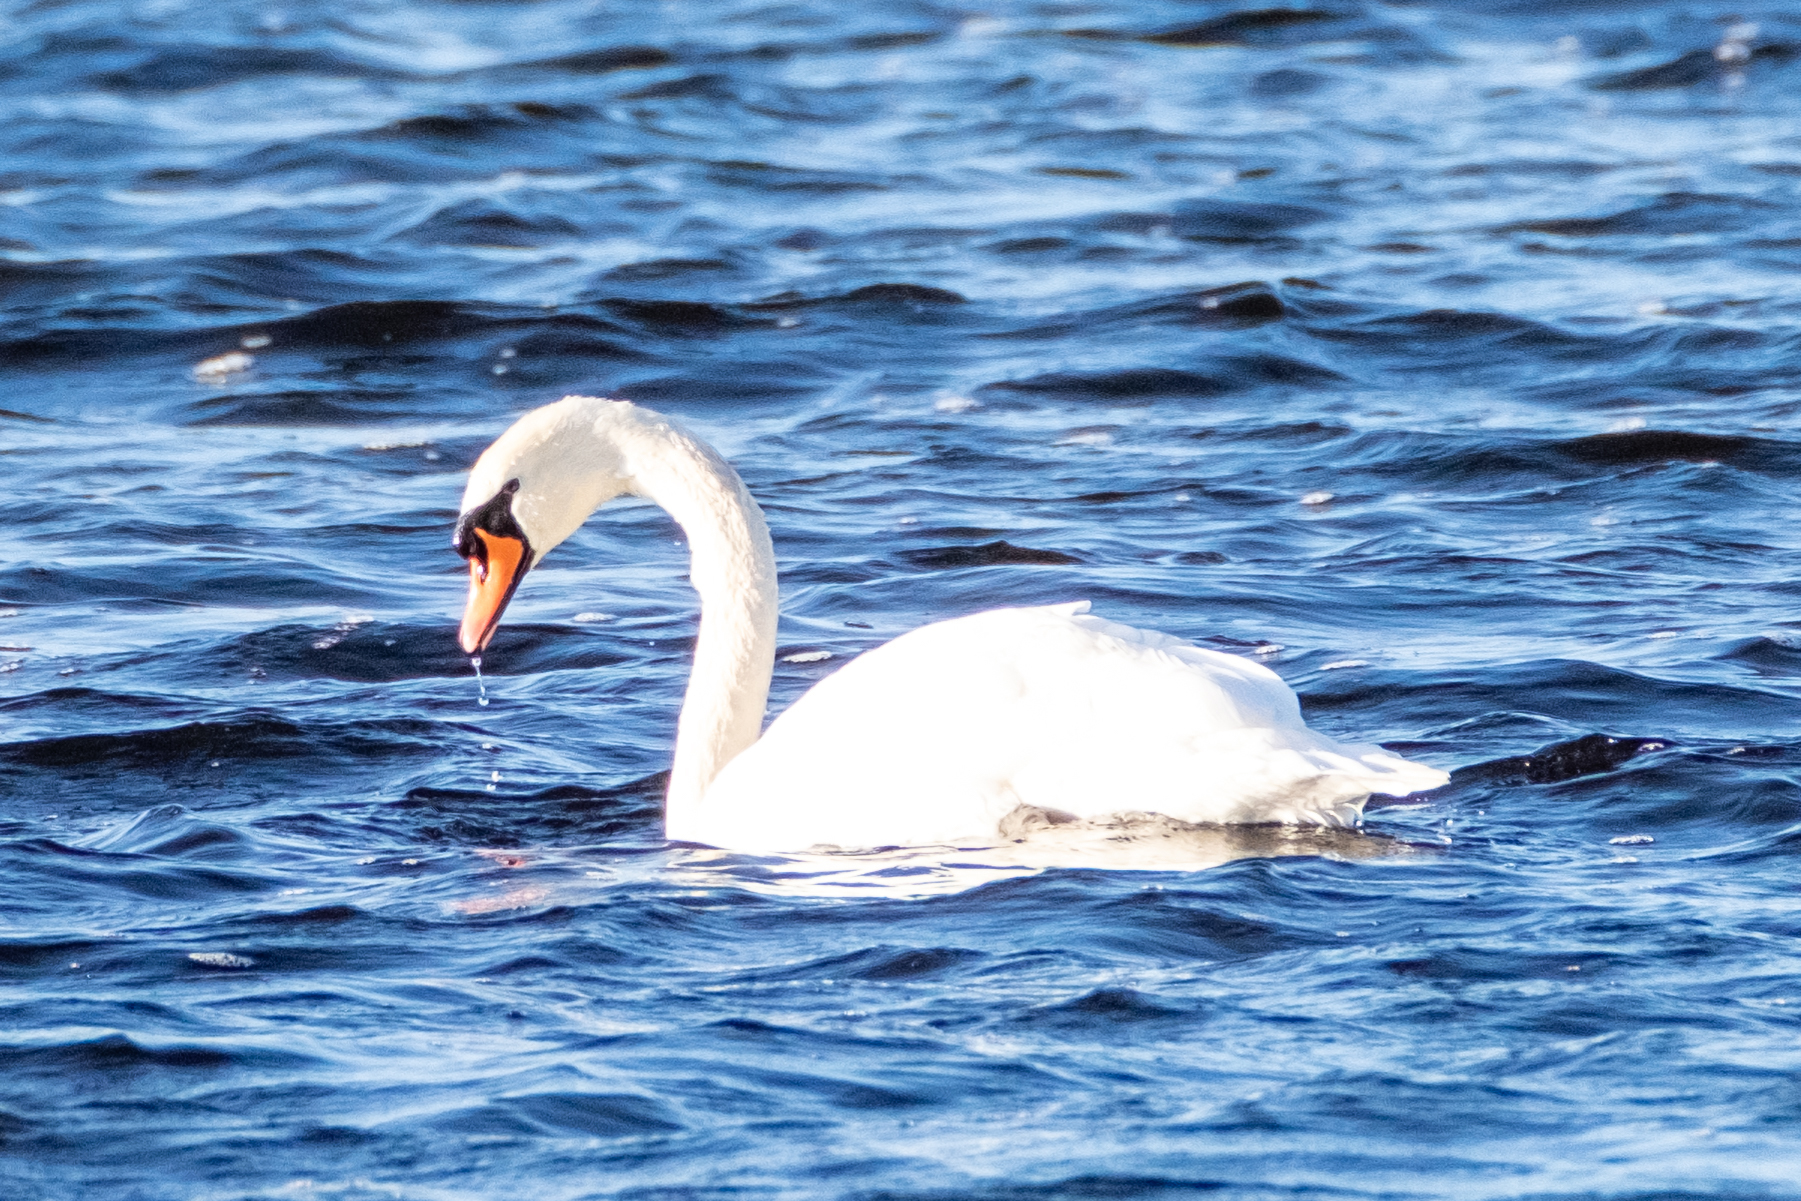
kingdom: Animalia
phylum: Chordata
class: Aves
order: Anseriformes
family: Anatidae
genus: Cygnus
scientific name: Cygnus olor
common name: Mute swan
